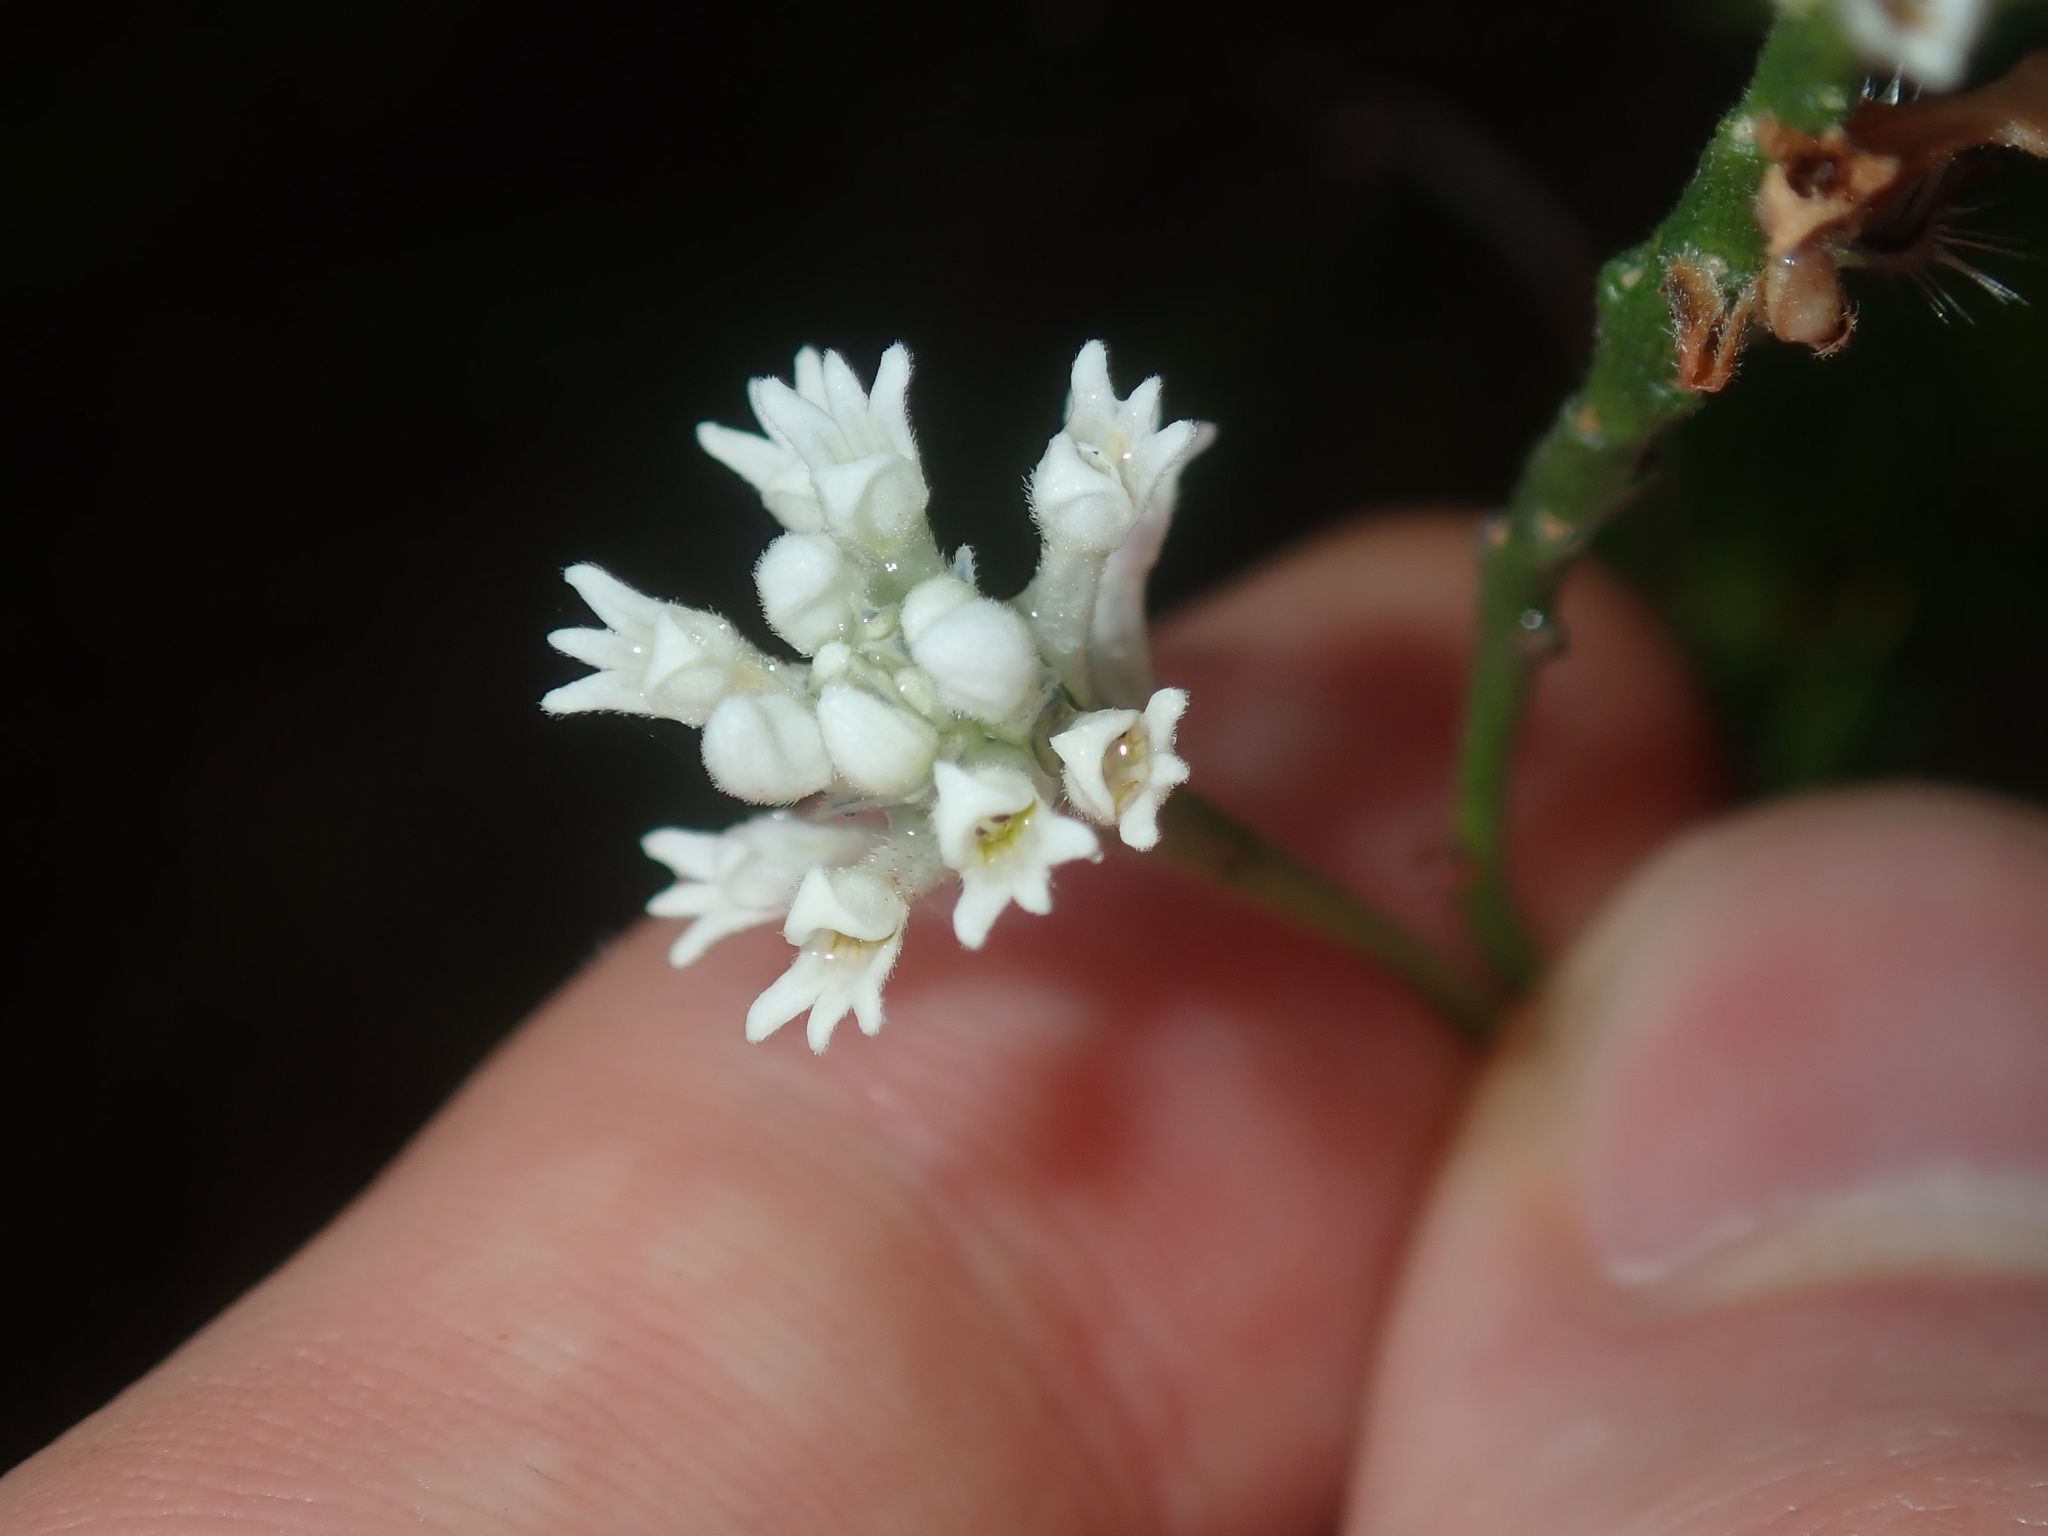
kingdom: Plantae
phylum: Tracheophyta
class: Magnoliopsida
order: Proteales
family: Proteaceae
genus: Conospermum
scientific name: Conospermum taxifolium
